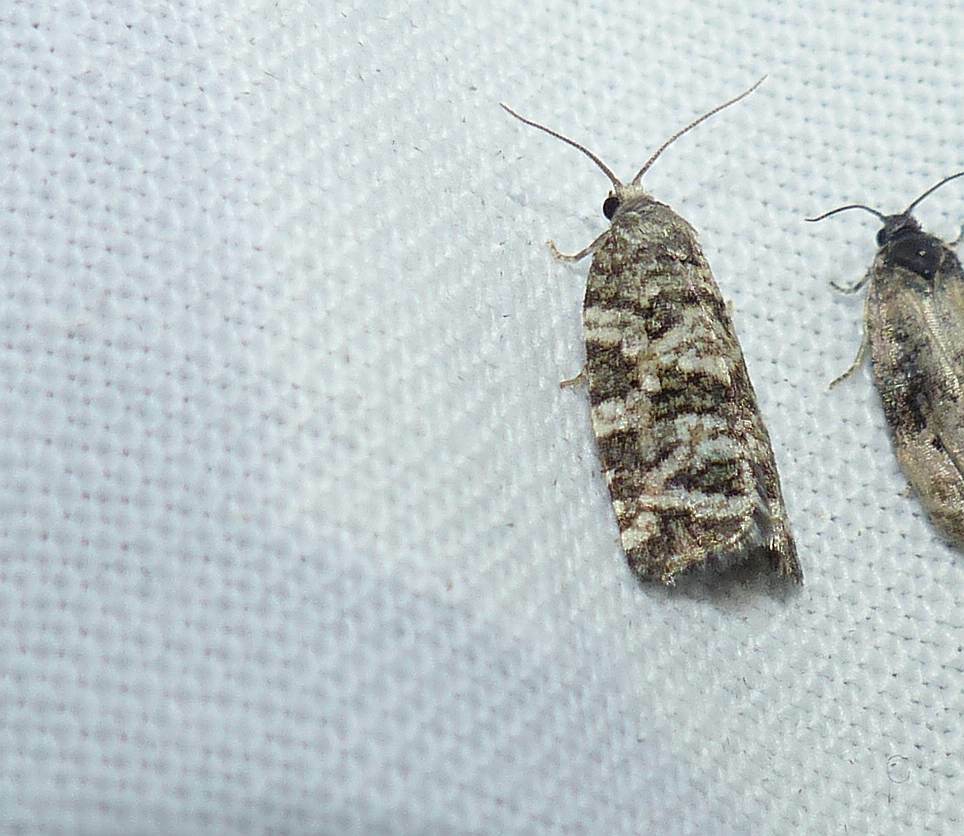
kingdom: Animalia
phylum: Arthropoda
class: Insecta
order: Lepidoptera
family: Tortricidae
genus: Archips
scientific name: Archips packardiana
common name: Spring spruce needle moth
